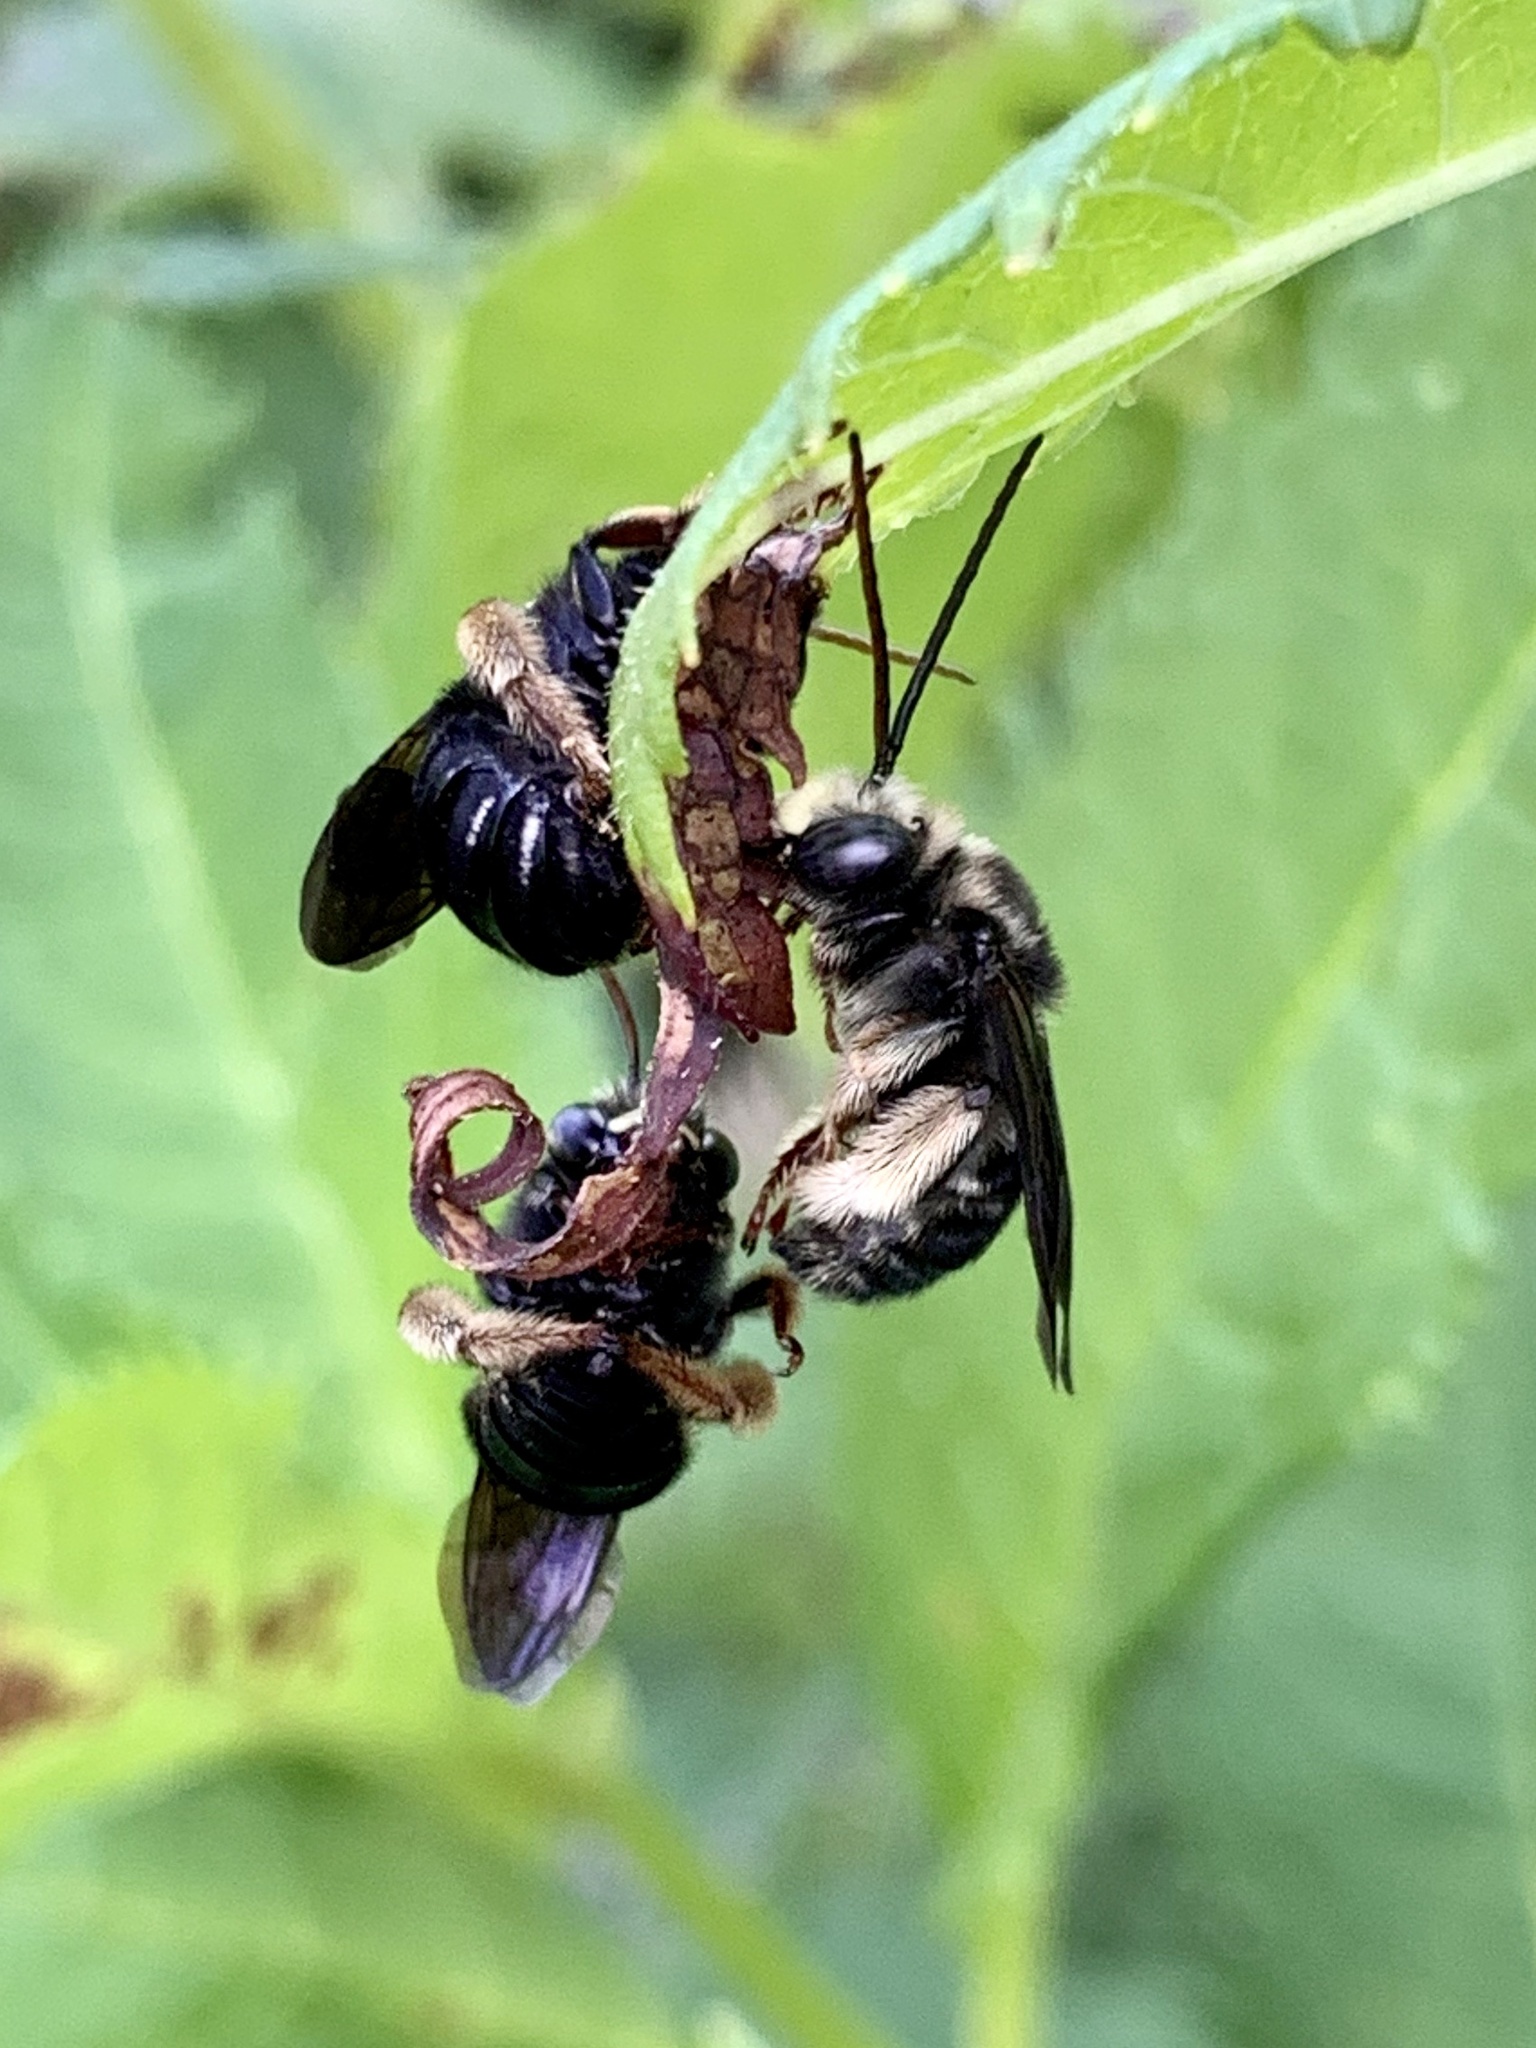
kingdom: Animalia
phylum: Arthropoda
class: Insecta
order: Hymenoptera
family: Apidae
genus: Melissodes
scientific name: Melissodes bimaculatus
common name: Two-spotted long-horned bee
